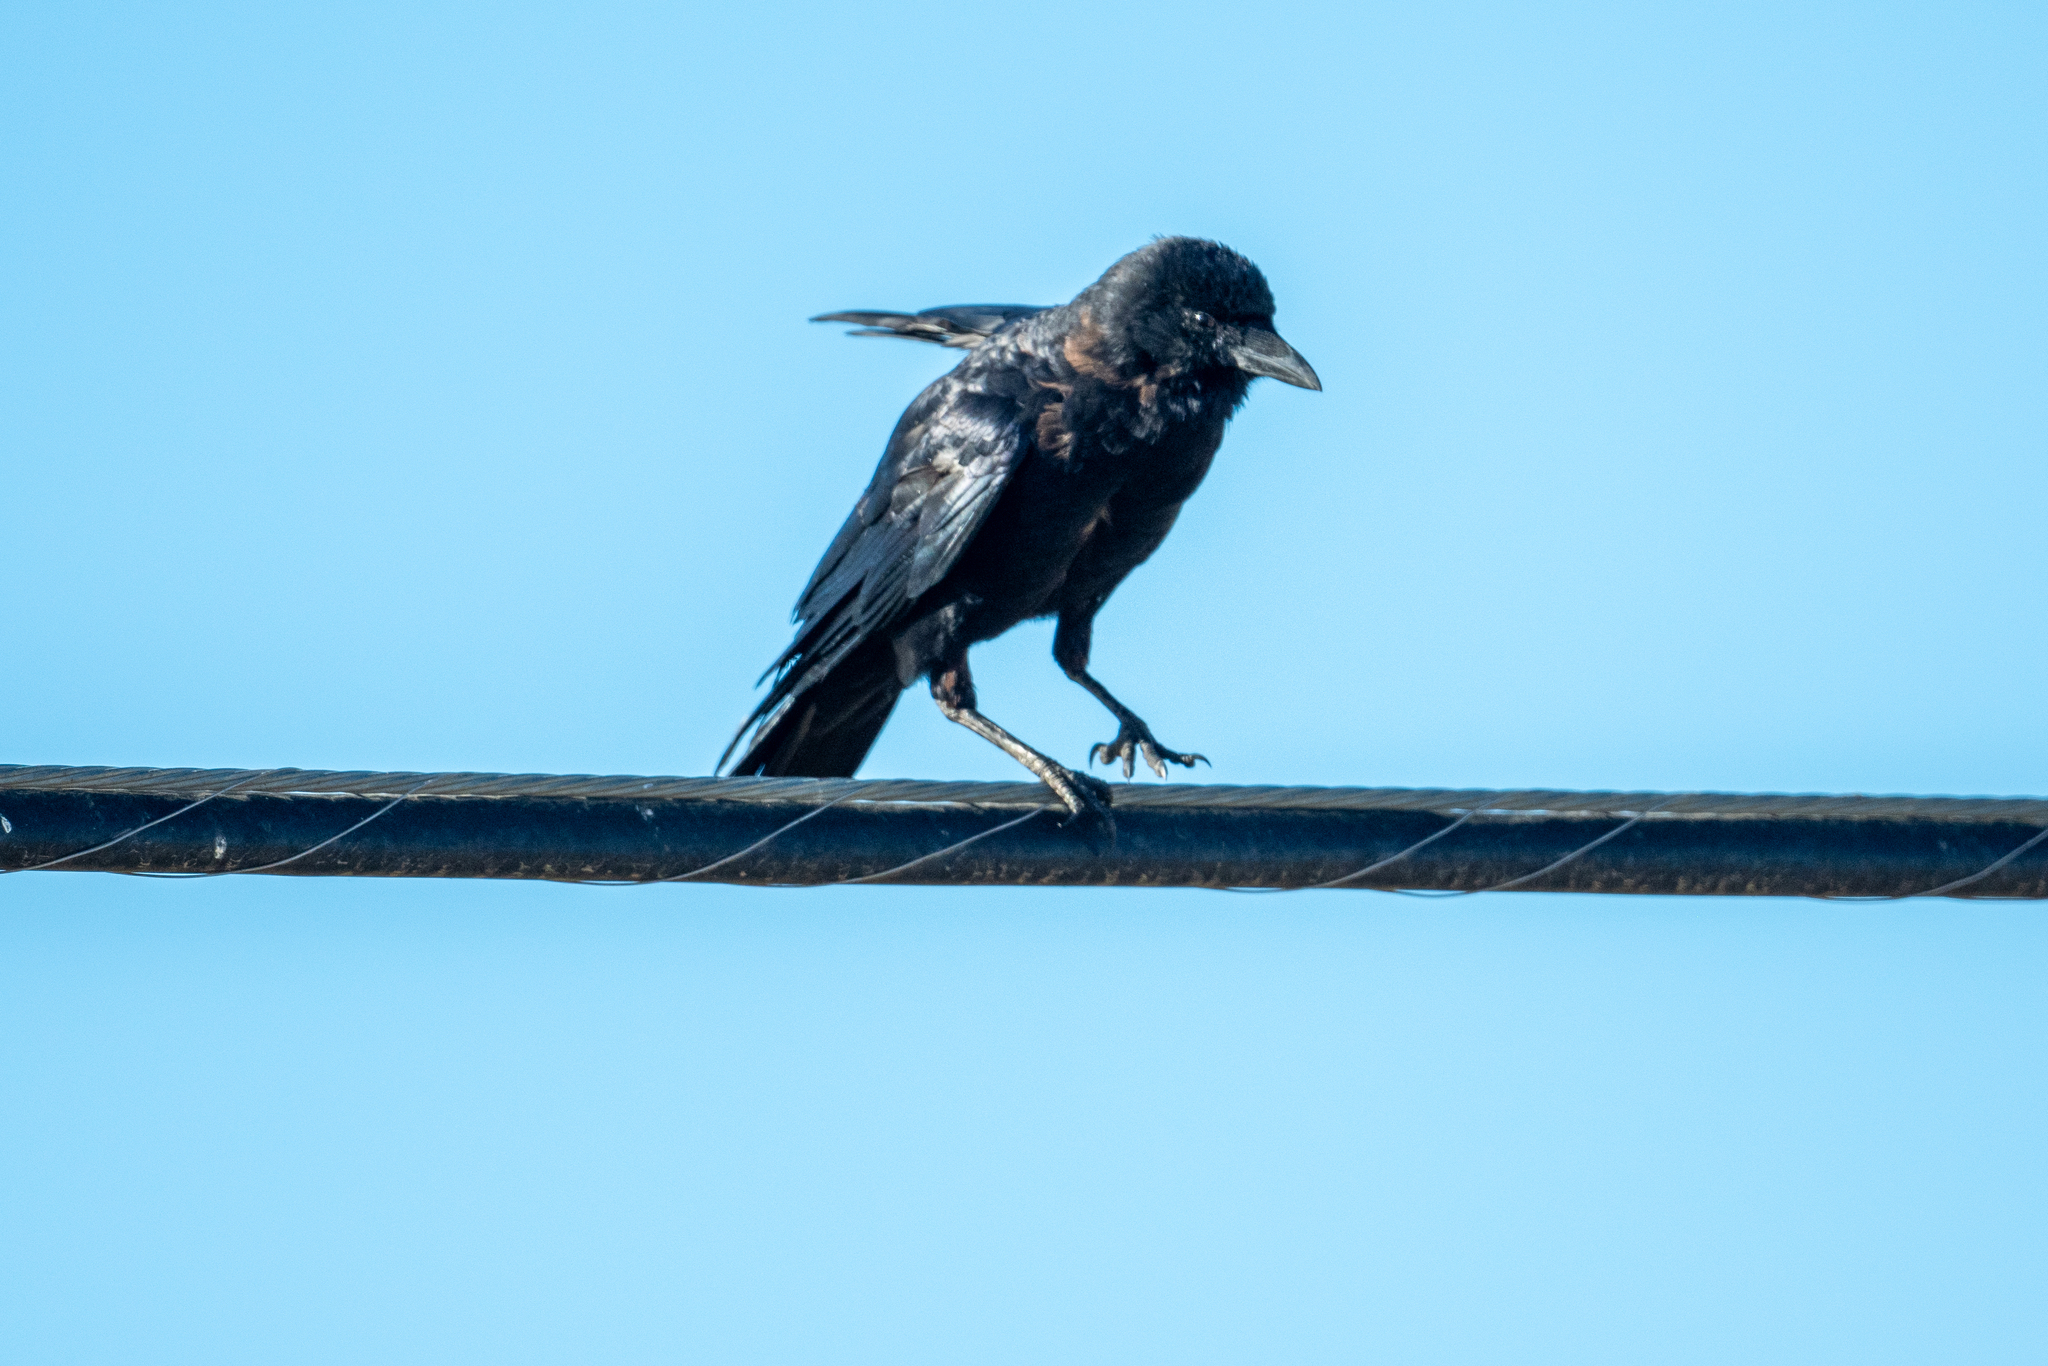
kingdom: Animalia
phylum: Chordata
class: Aves
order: Passeriformes
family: Corvidae
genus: Corvus
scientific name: Corvus brachyrhynchos
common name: American crow
